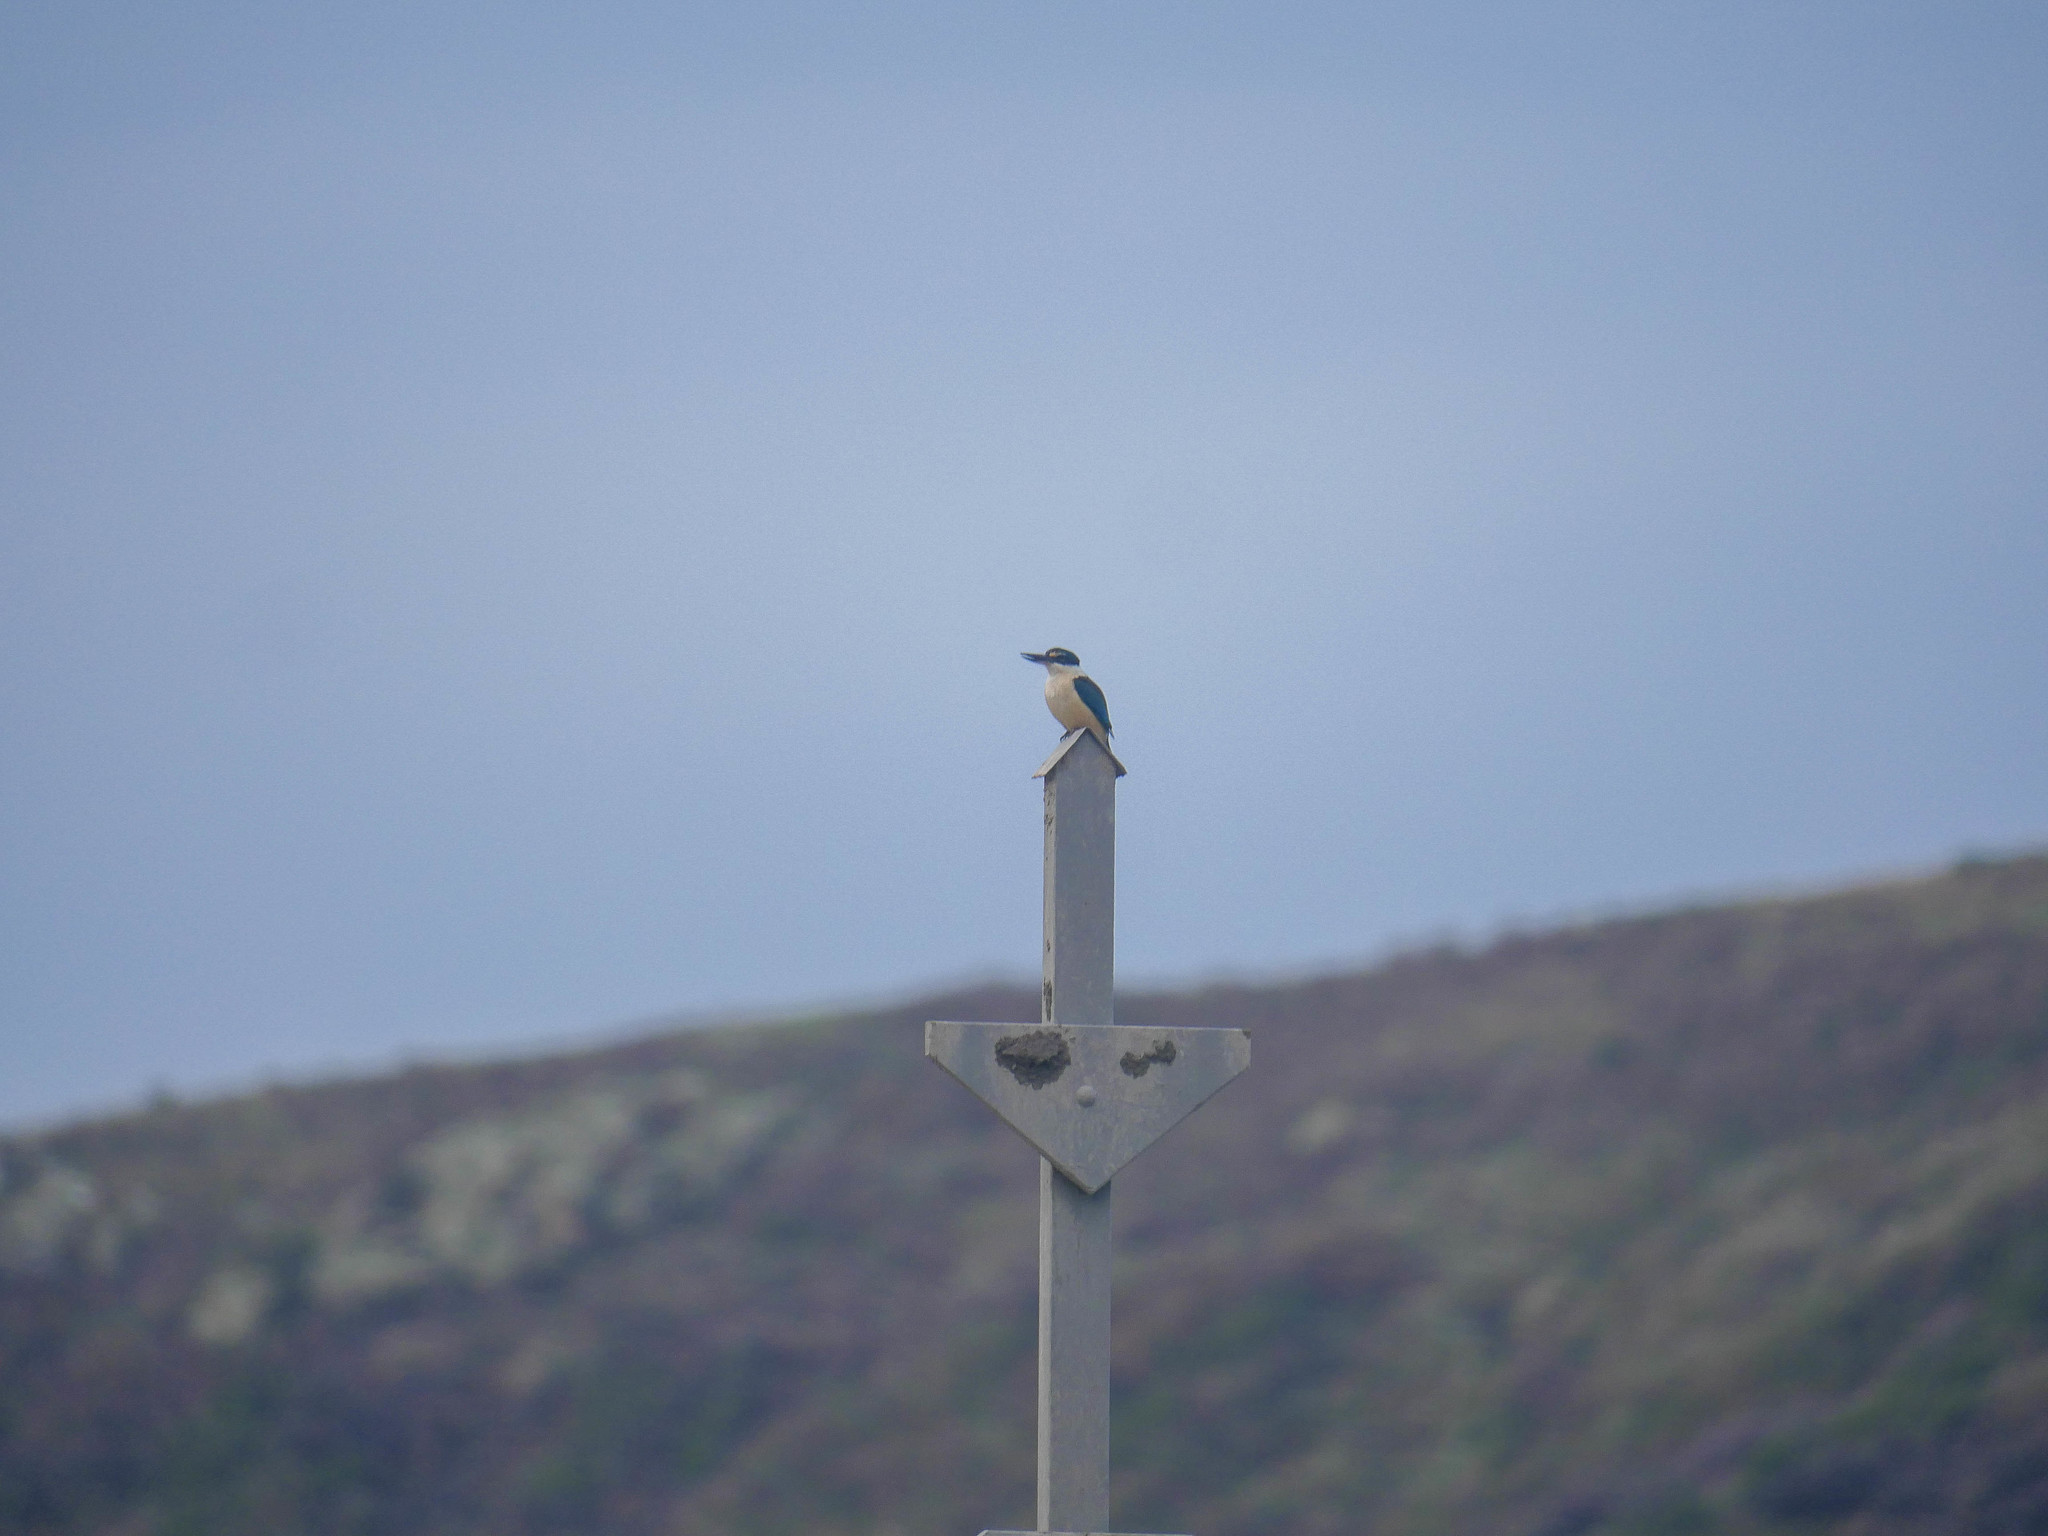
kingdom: Animalia
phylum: Chordata
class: Aves
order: Coraciiformes
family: Alcedinidae
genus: Todiramphus
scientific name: Todiramphus sanctus
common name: Sacred kingfisher
